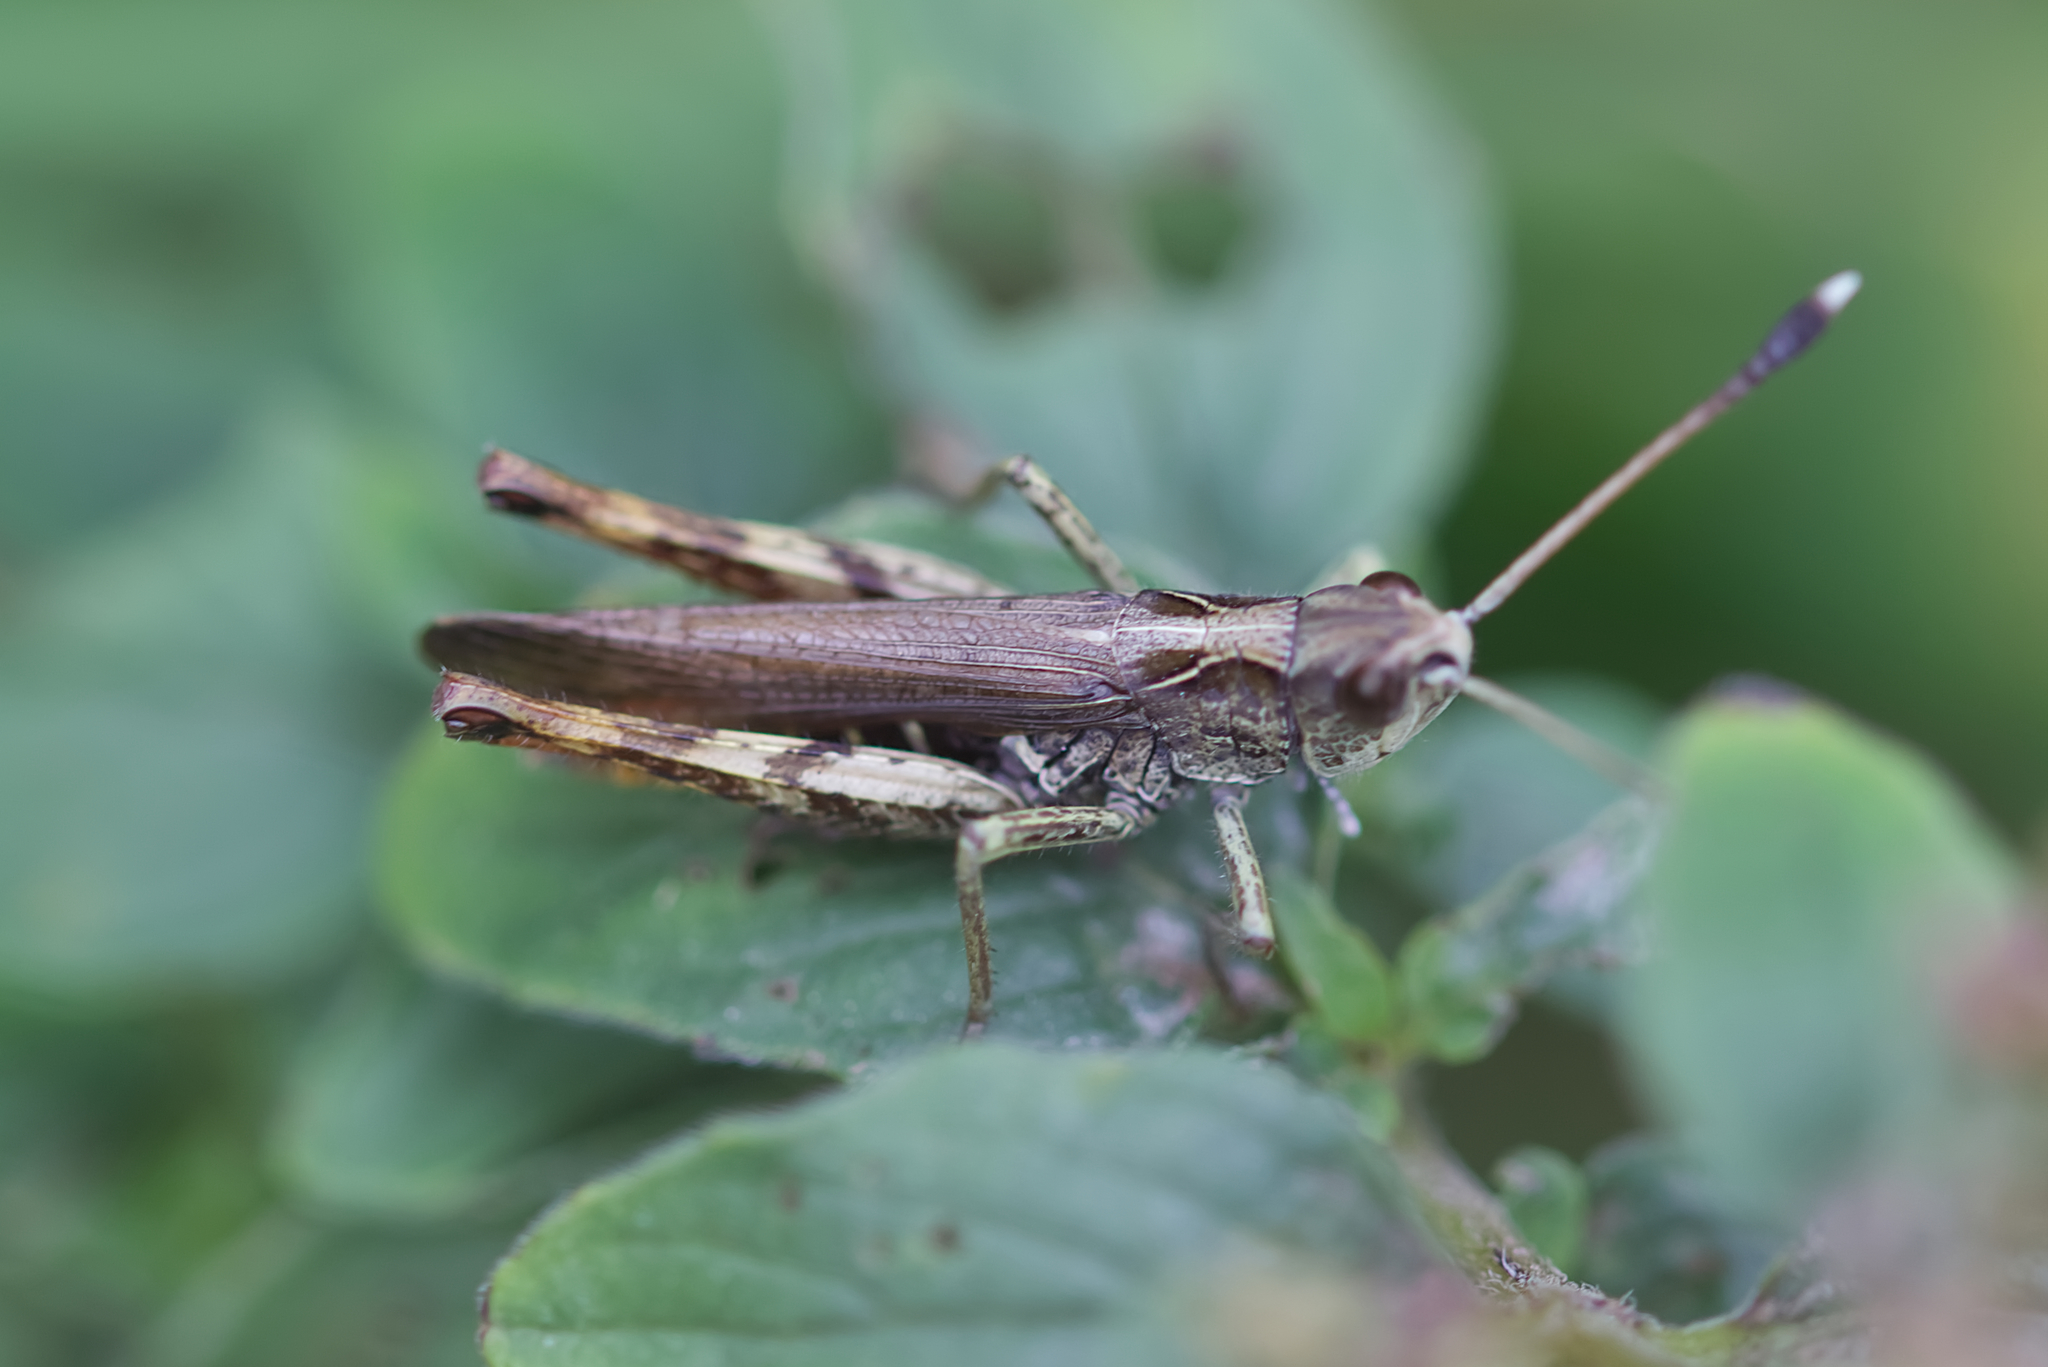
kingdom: Animalia
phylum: Arthropoda
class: Insecta
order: Orthoptera
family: Acrididae
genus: Gomphocerippus
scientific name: Gomphocerippus rufus
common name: Rufous grasshopper
